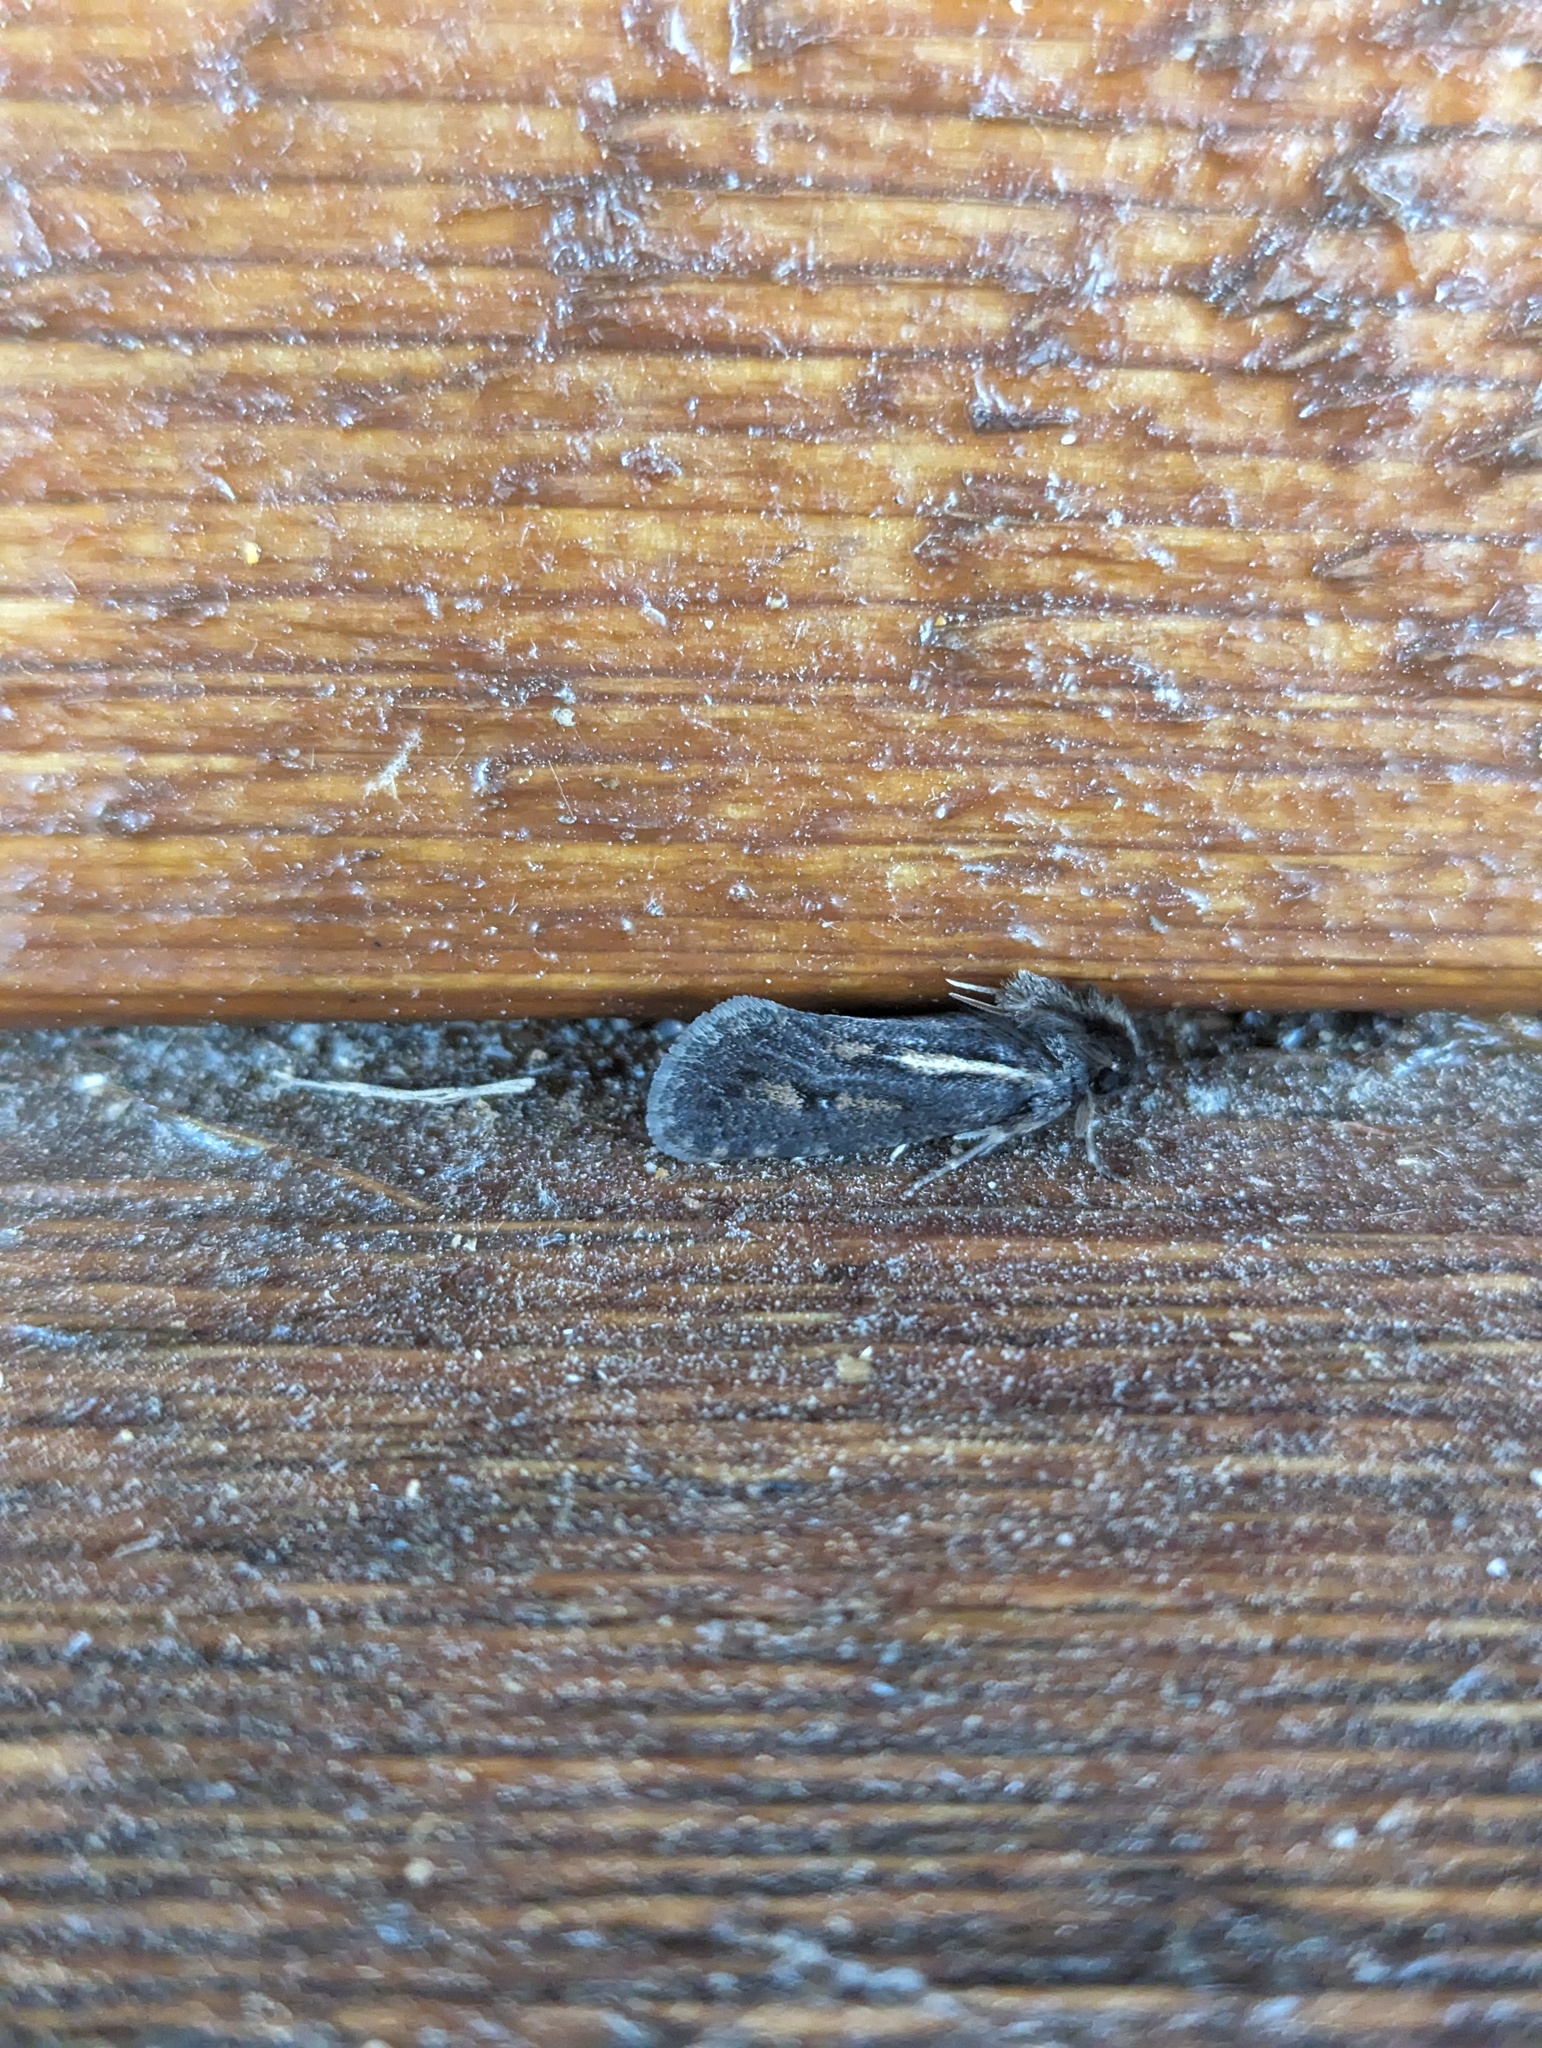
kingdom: Animalia
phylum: Arthropoda
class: Insecta
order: Lepidoptera
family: Tineidae
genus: Acrolophus
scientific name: Acrolophus popeanella
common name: Clemens' grass tubeworm moth
